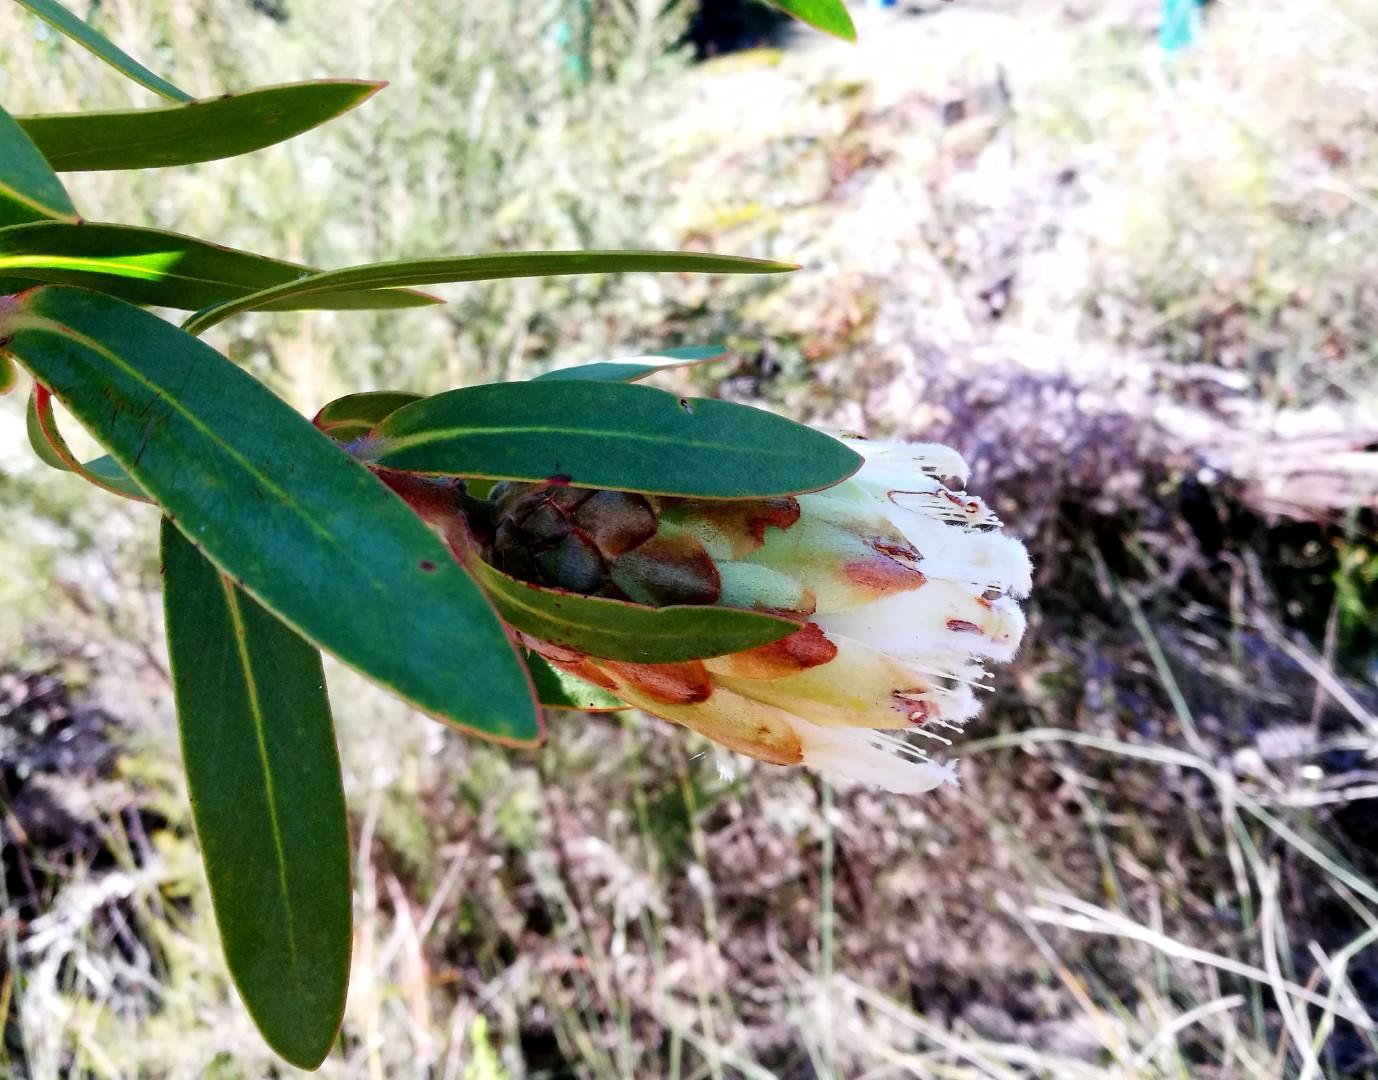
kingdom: Plantae
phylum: Tracheophyta
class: Magnoliopsida
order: Proteales
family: Proteaceae
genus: Protea
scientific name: Protea mundii
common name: Forest sugarbush
